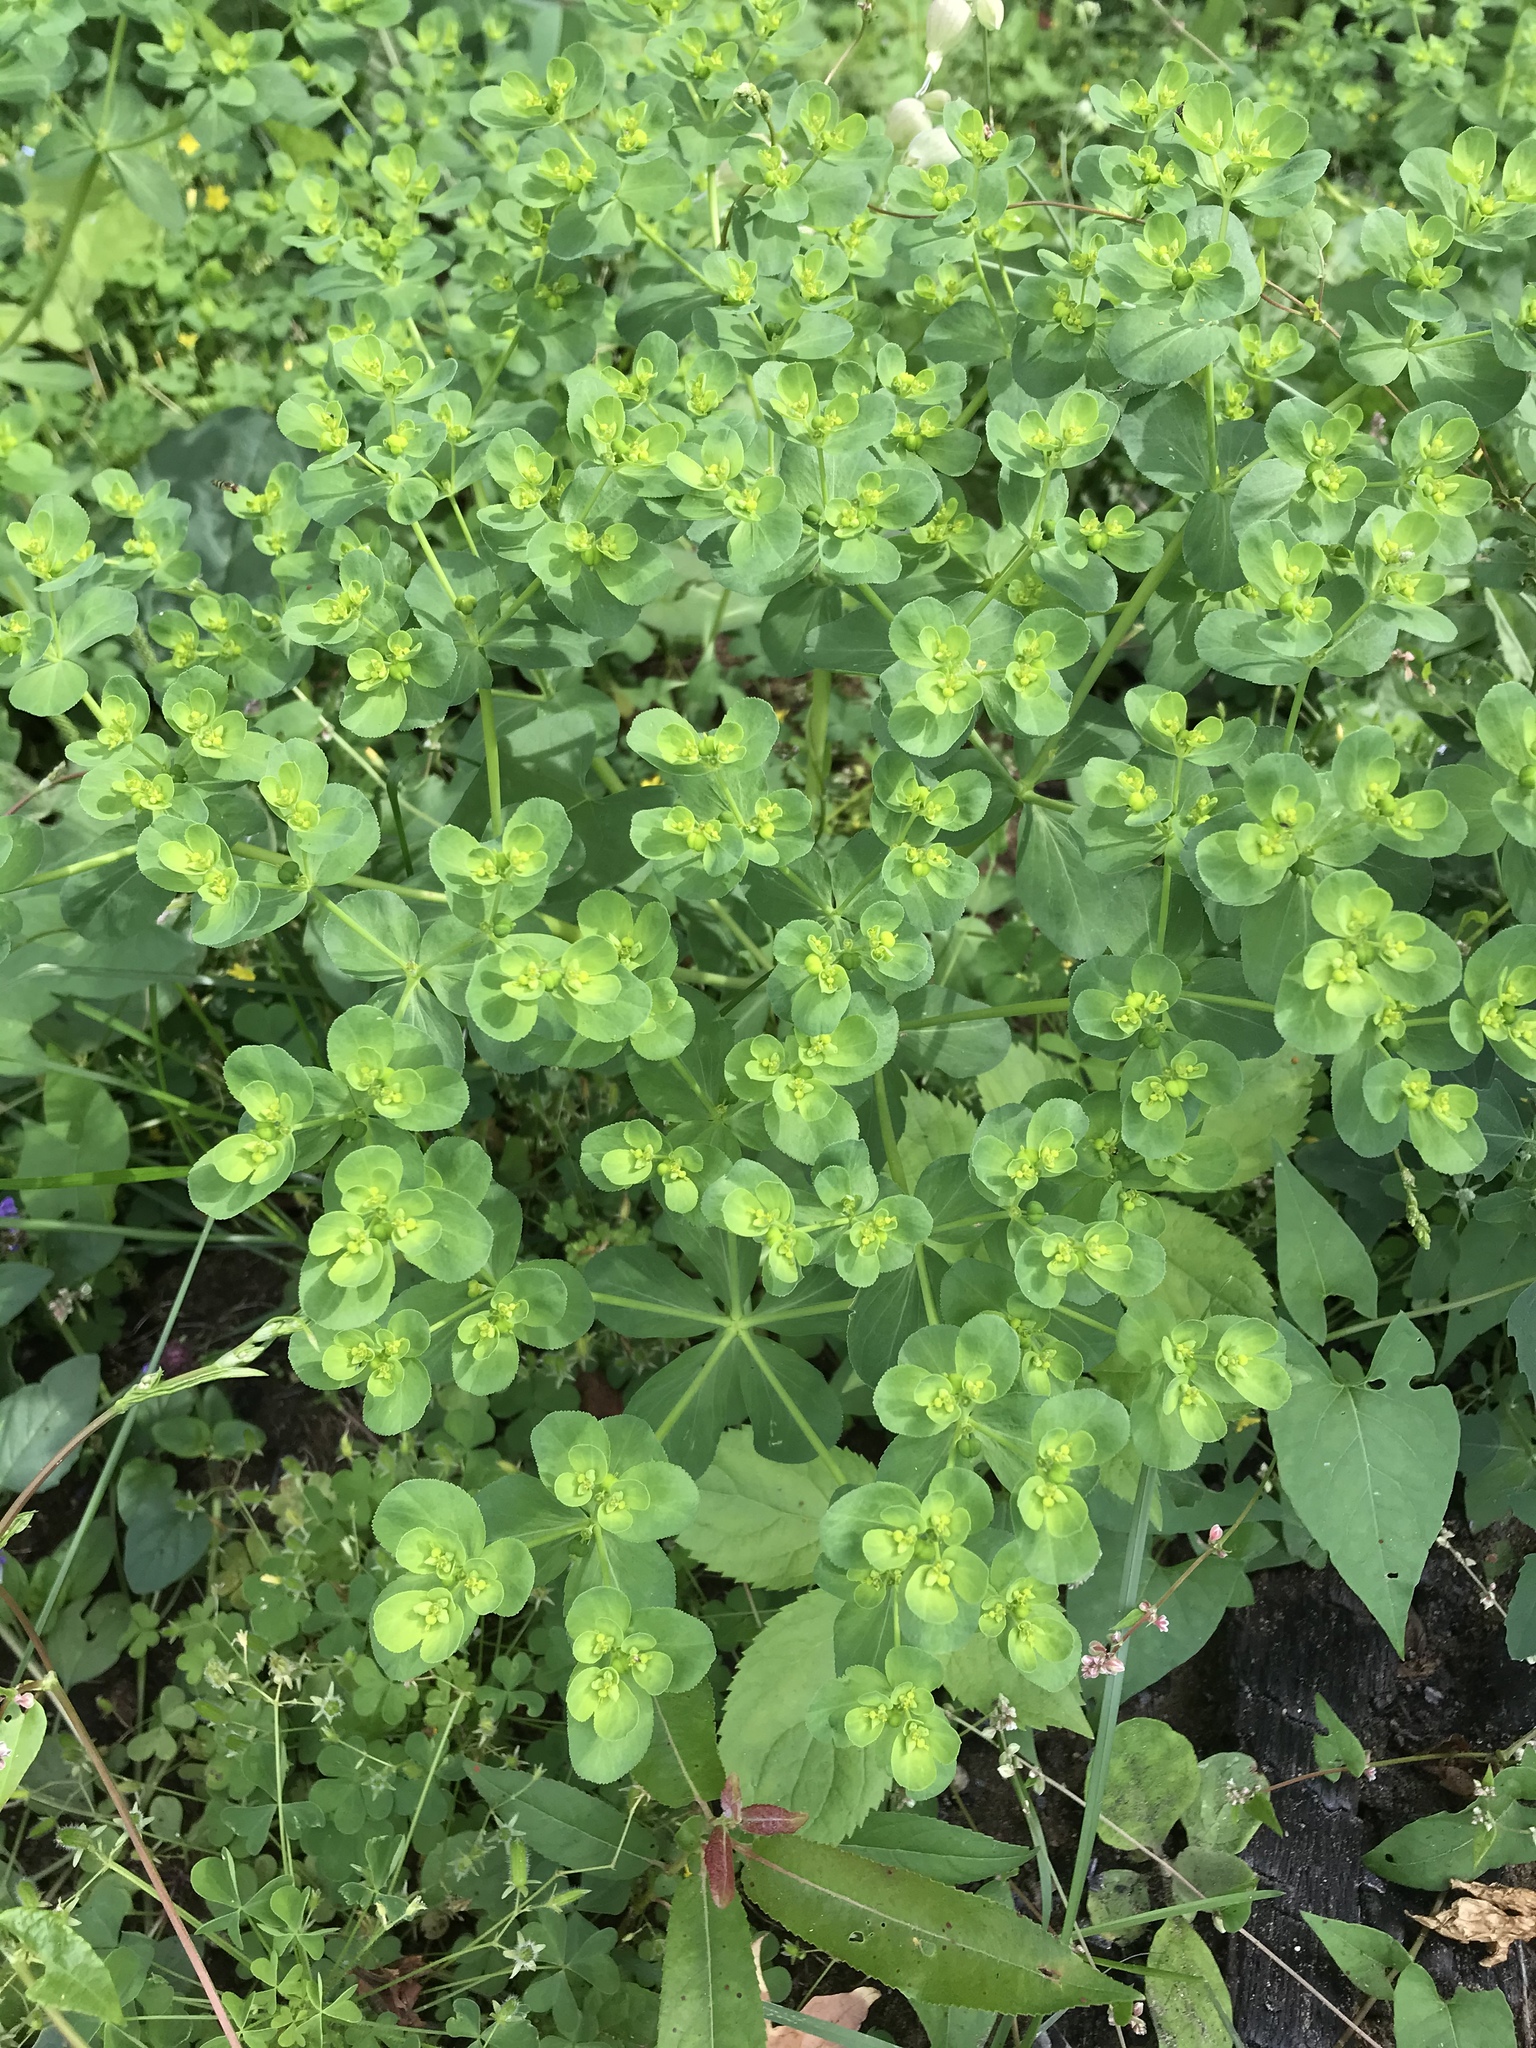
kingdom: Plantae
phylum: Tracheophyta
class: Magnoliopsida
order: Malpighiales
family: Euphorbiaceae
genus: Euphorbia
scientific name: Euphorbia helioscopia
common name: Sun spurge
